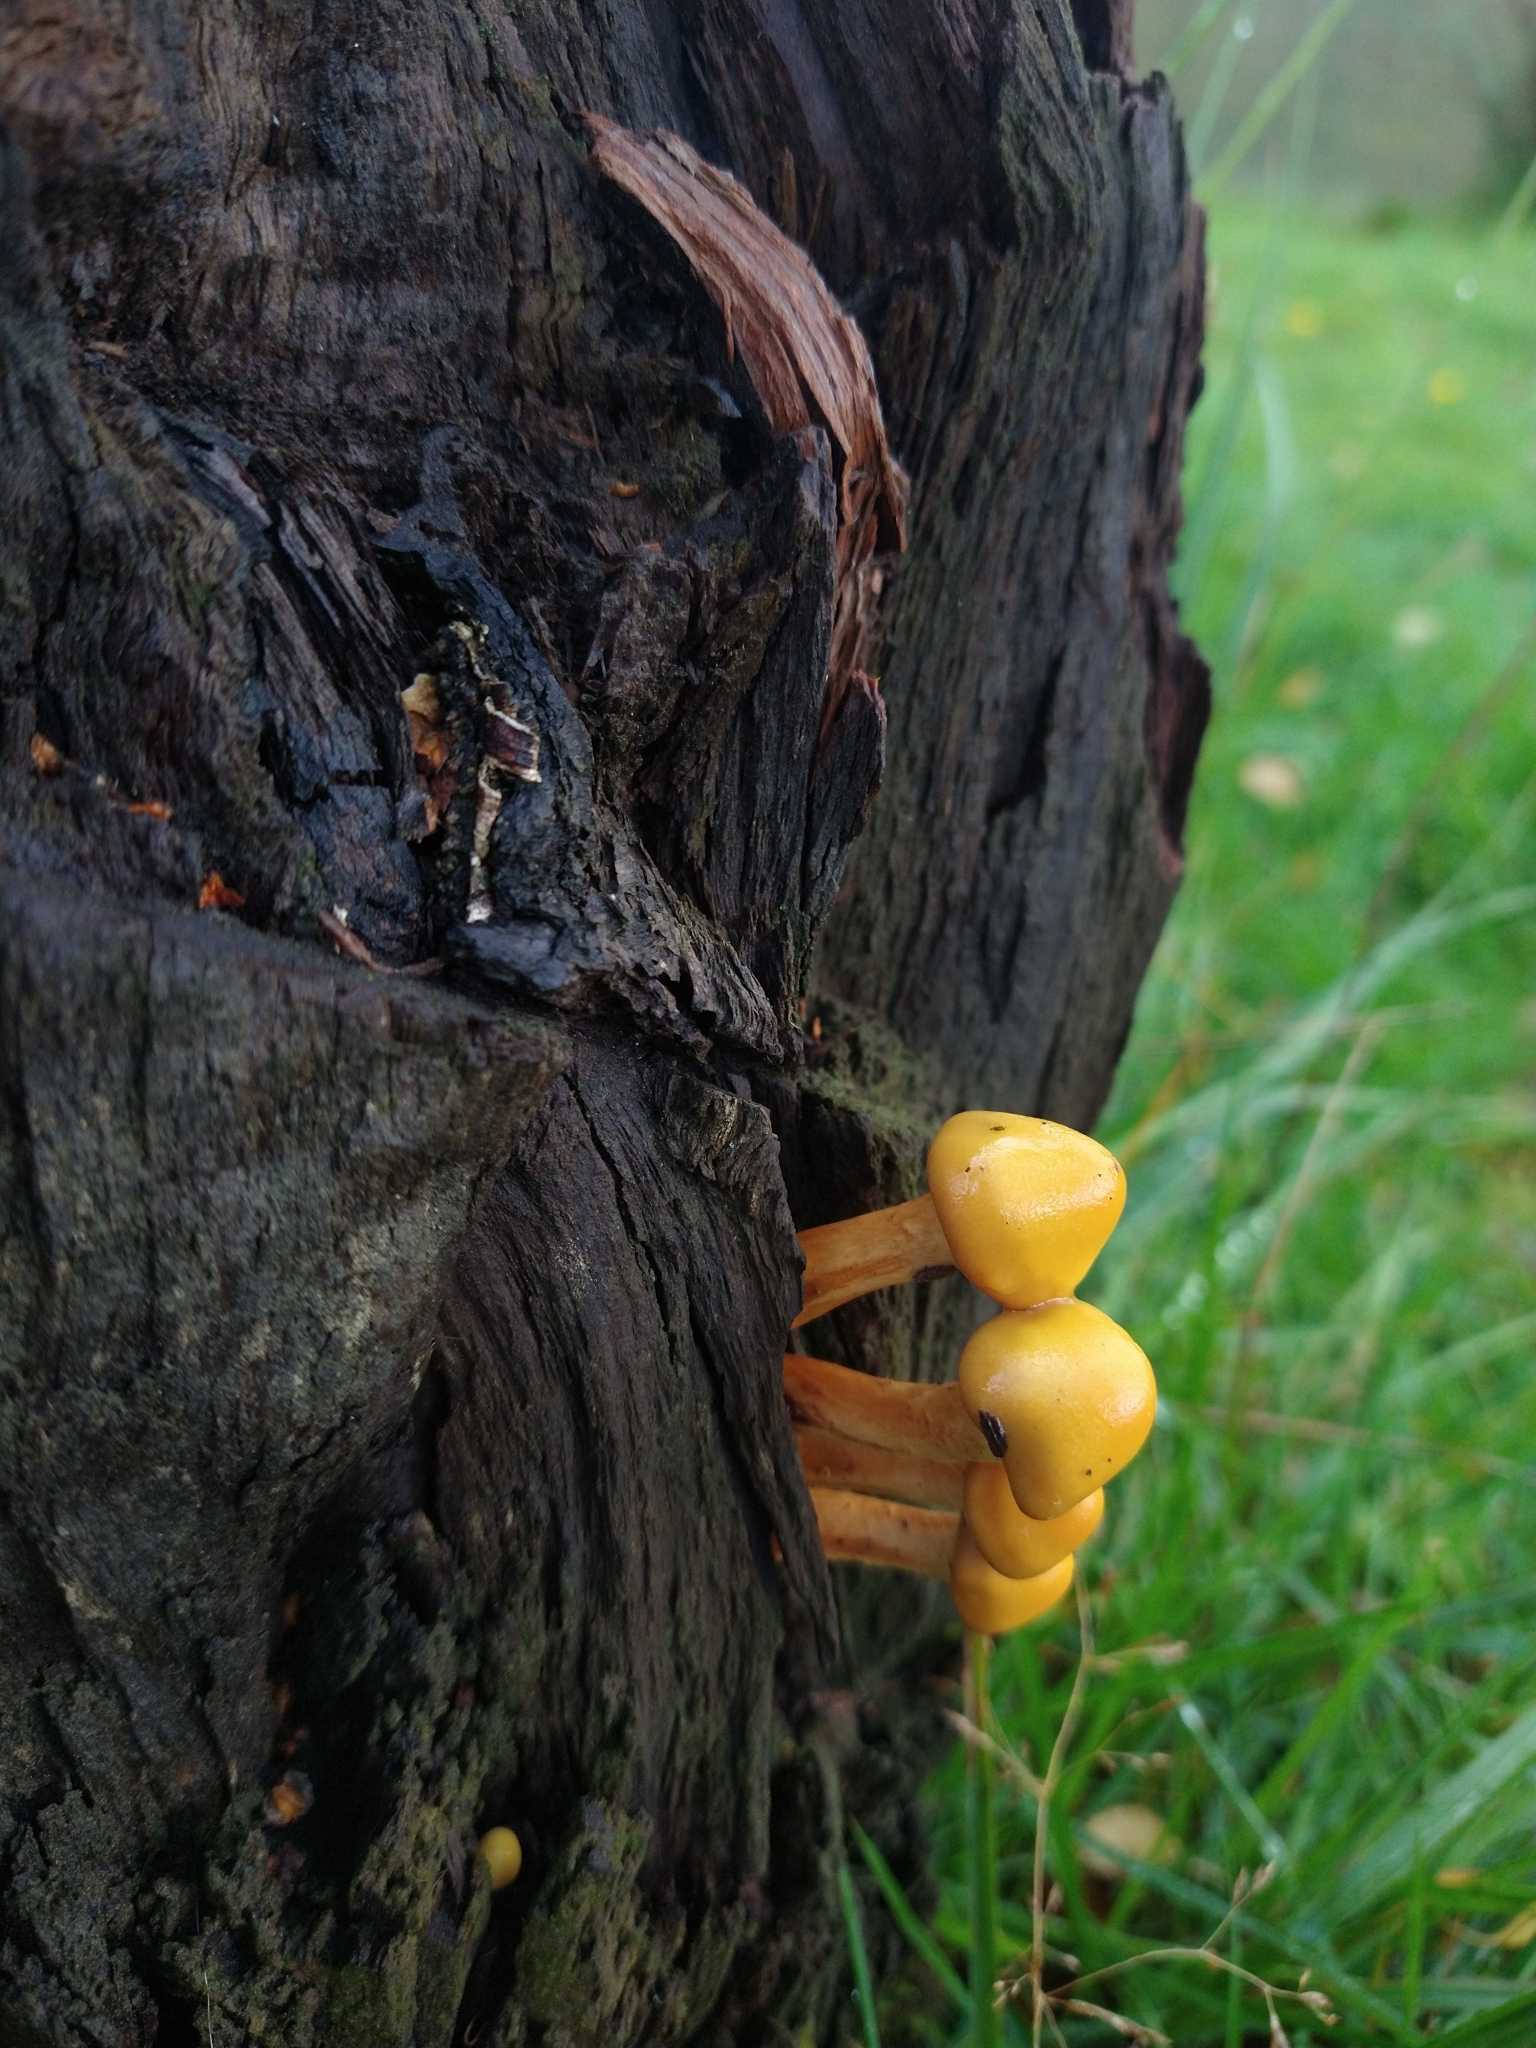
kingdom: Fungi
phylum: Basidiomycota
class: Agaricomycetes
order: Agaricales
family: Strophariaceae
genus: Kuehneromyces
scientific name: Kuehneromyces mutabilis
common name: Sheathed woodtuft
